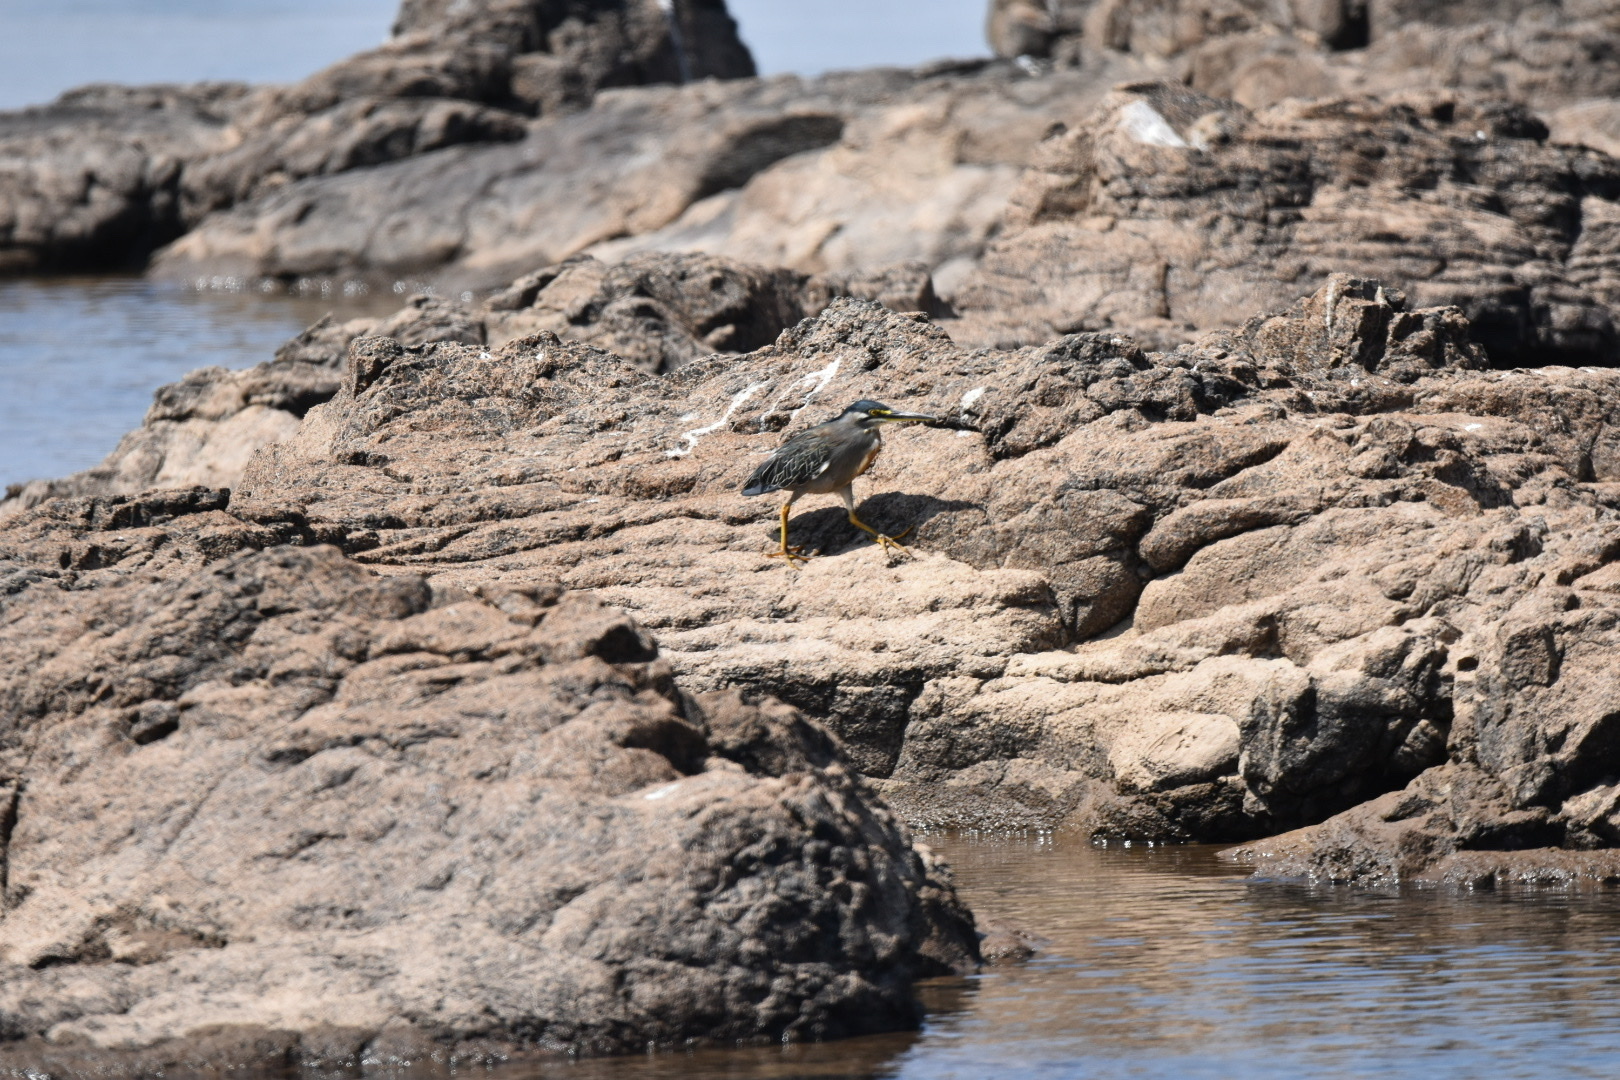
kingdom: Animalia
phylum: Chordata
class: Aves
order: Pelecaniformes
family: Ardeidae
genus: Butorides
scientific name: Butorides striata
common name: Striated heron
